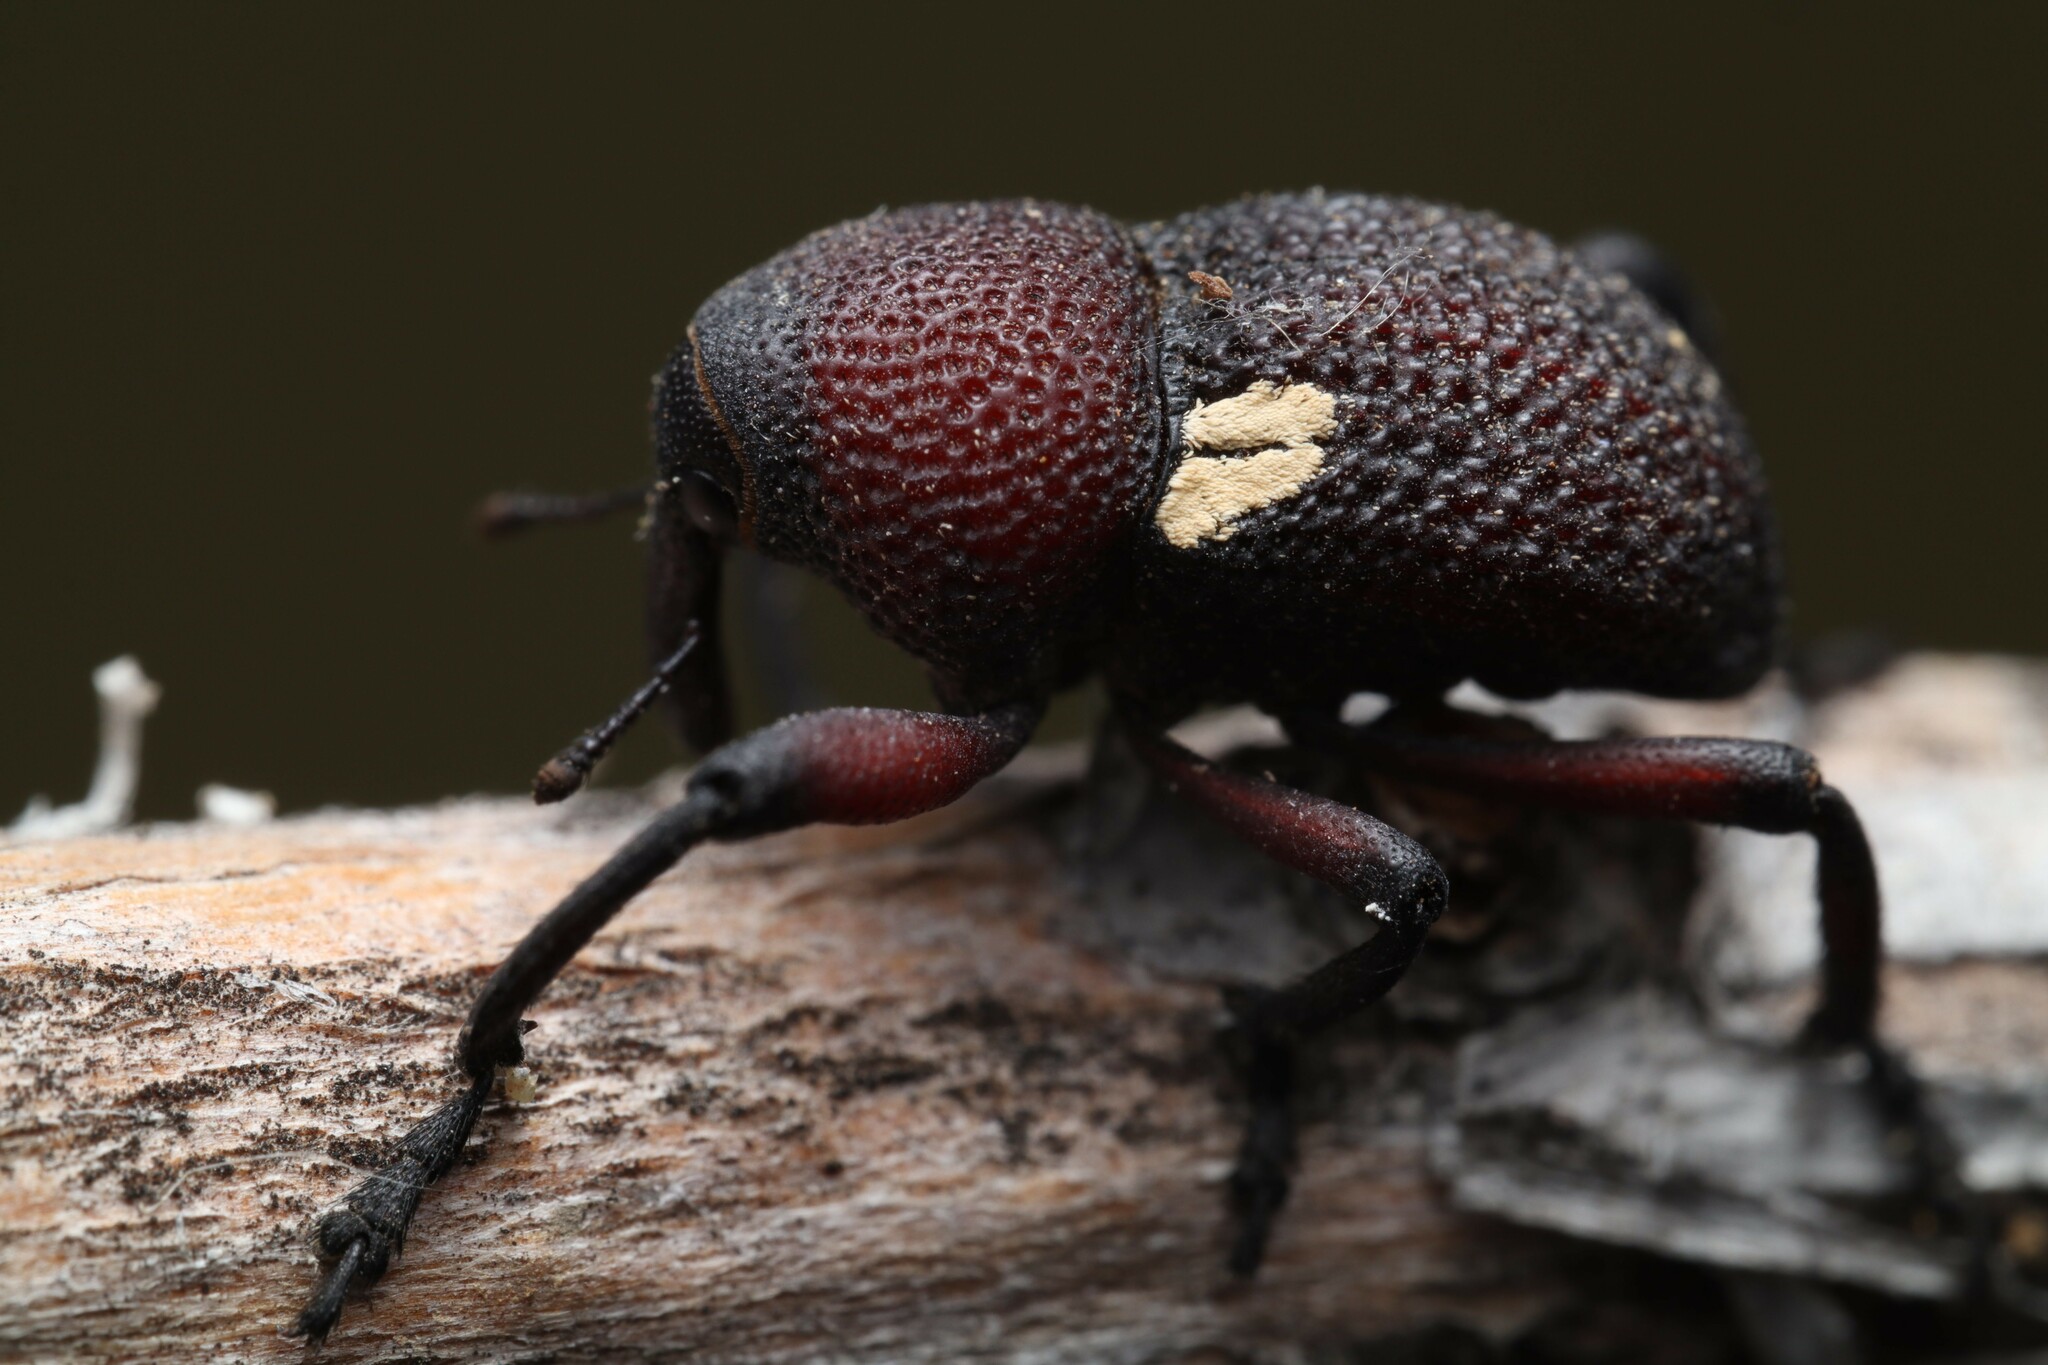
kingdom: Animalia
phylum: Arthropoda
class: Insecta
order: Coleoptera
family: Curculionidae
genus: Rhyephenes
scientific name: Rhyephenes gayi
